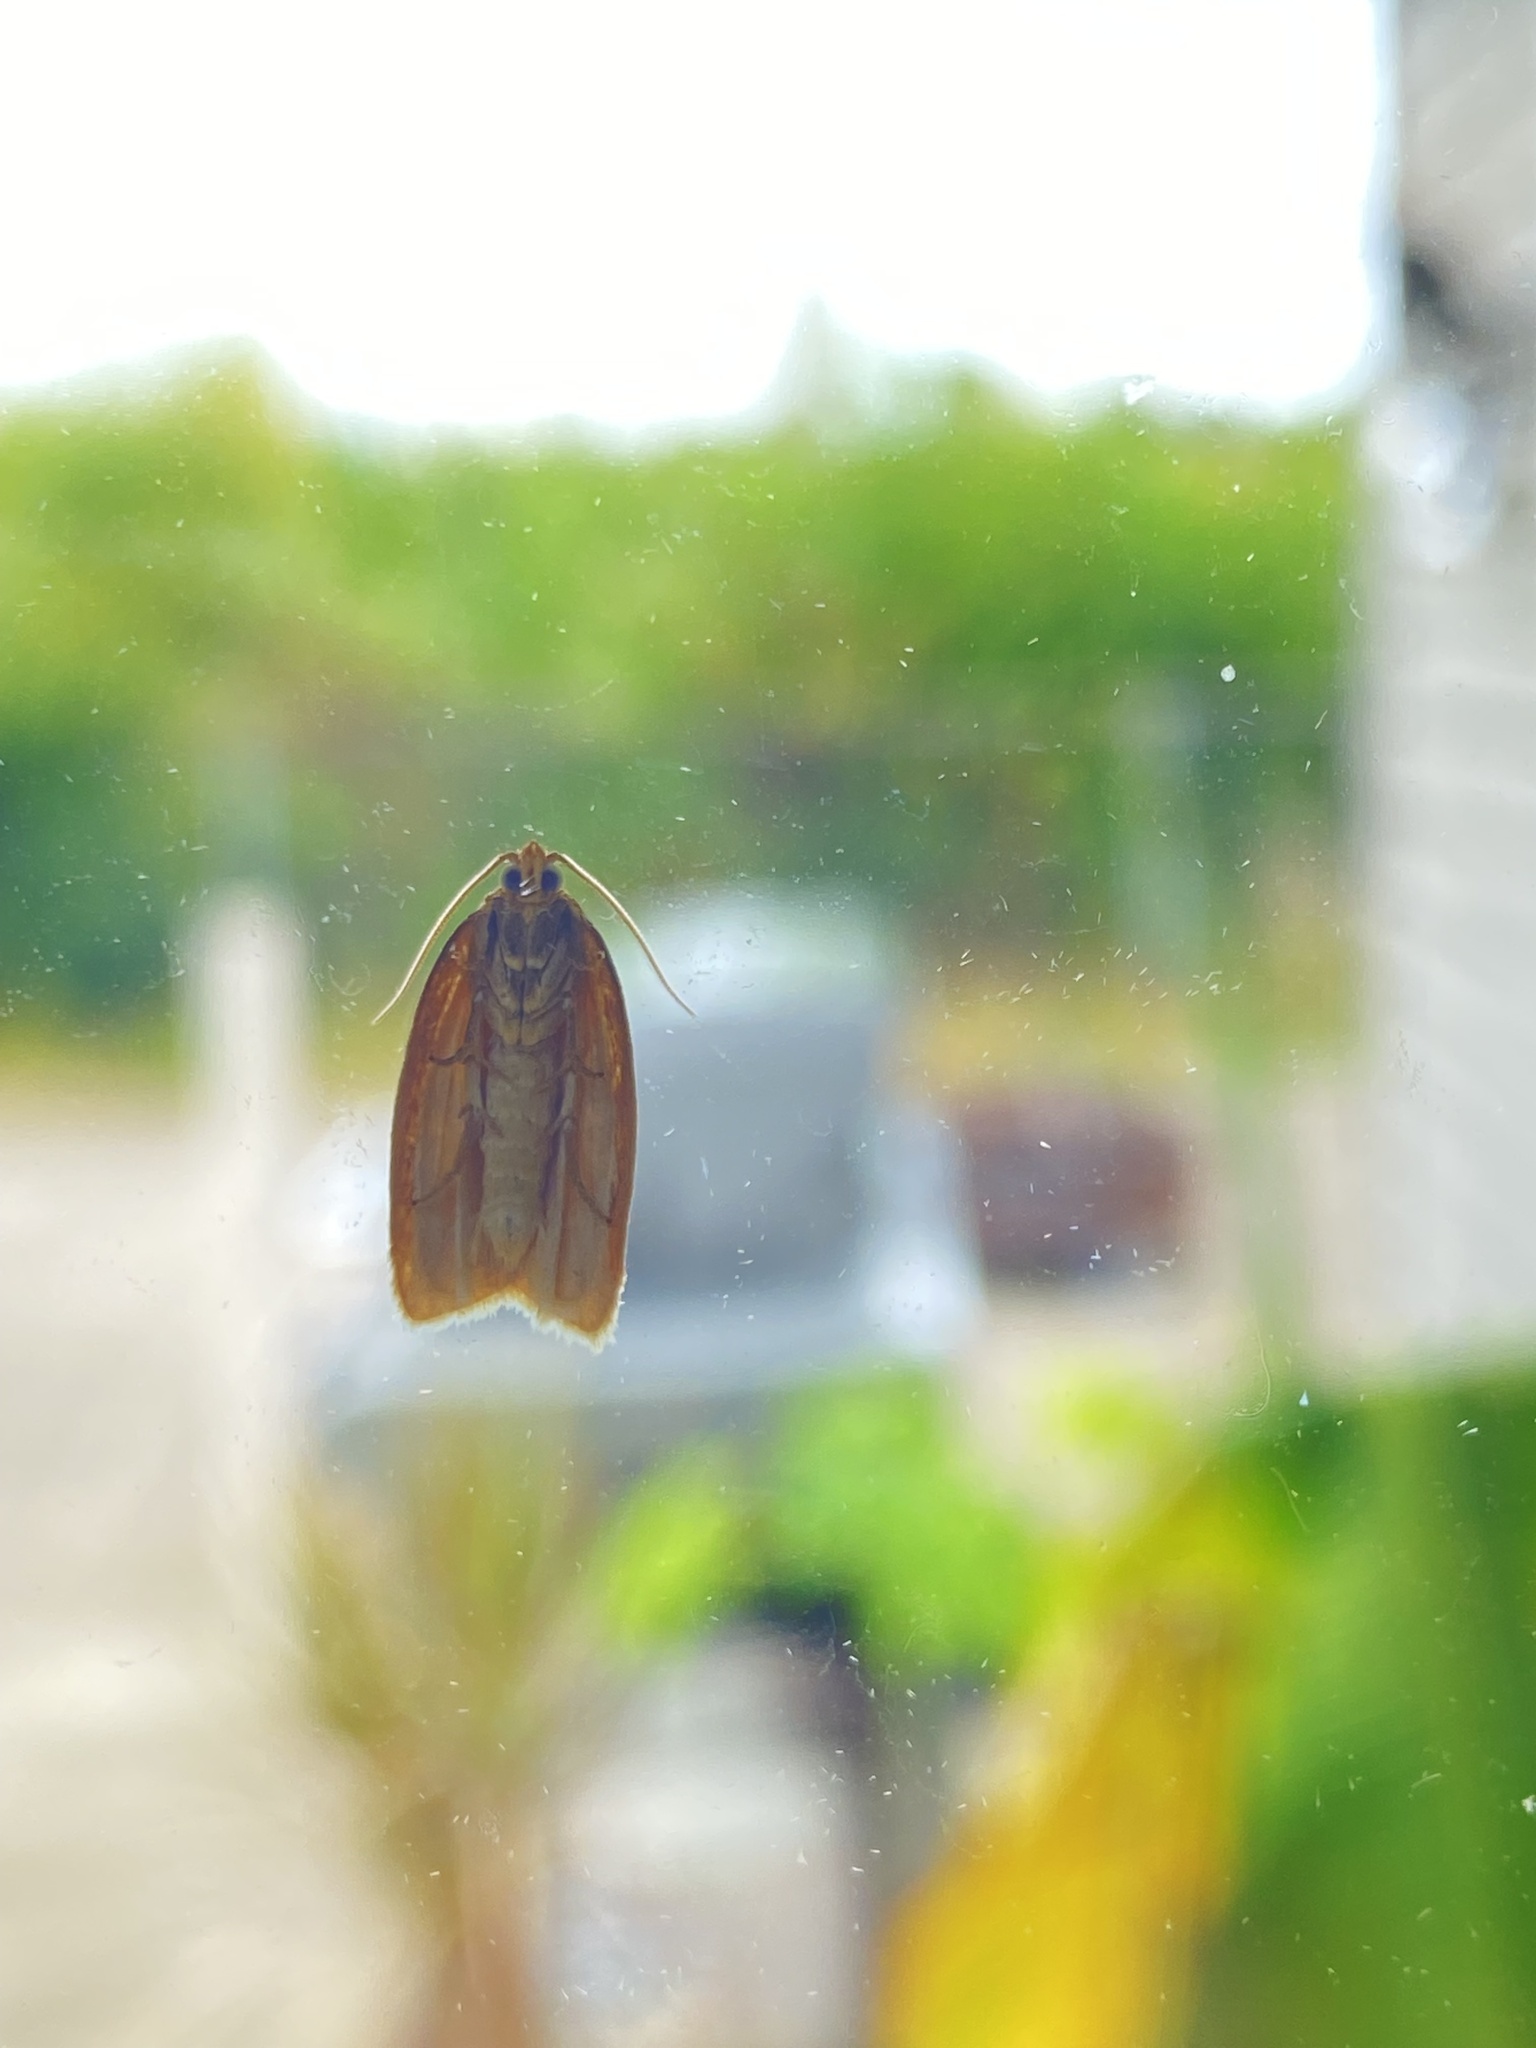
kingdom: Animalia
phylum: Arthropoda
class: Insecta
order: Lepidoptera
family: Tortricidae
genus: Xenotemna
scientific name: Xenotemna pallorana
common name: Pallid leafroller moth
